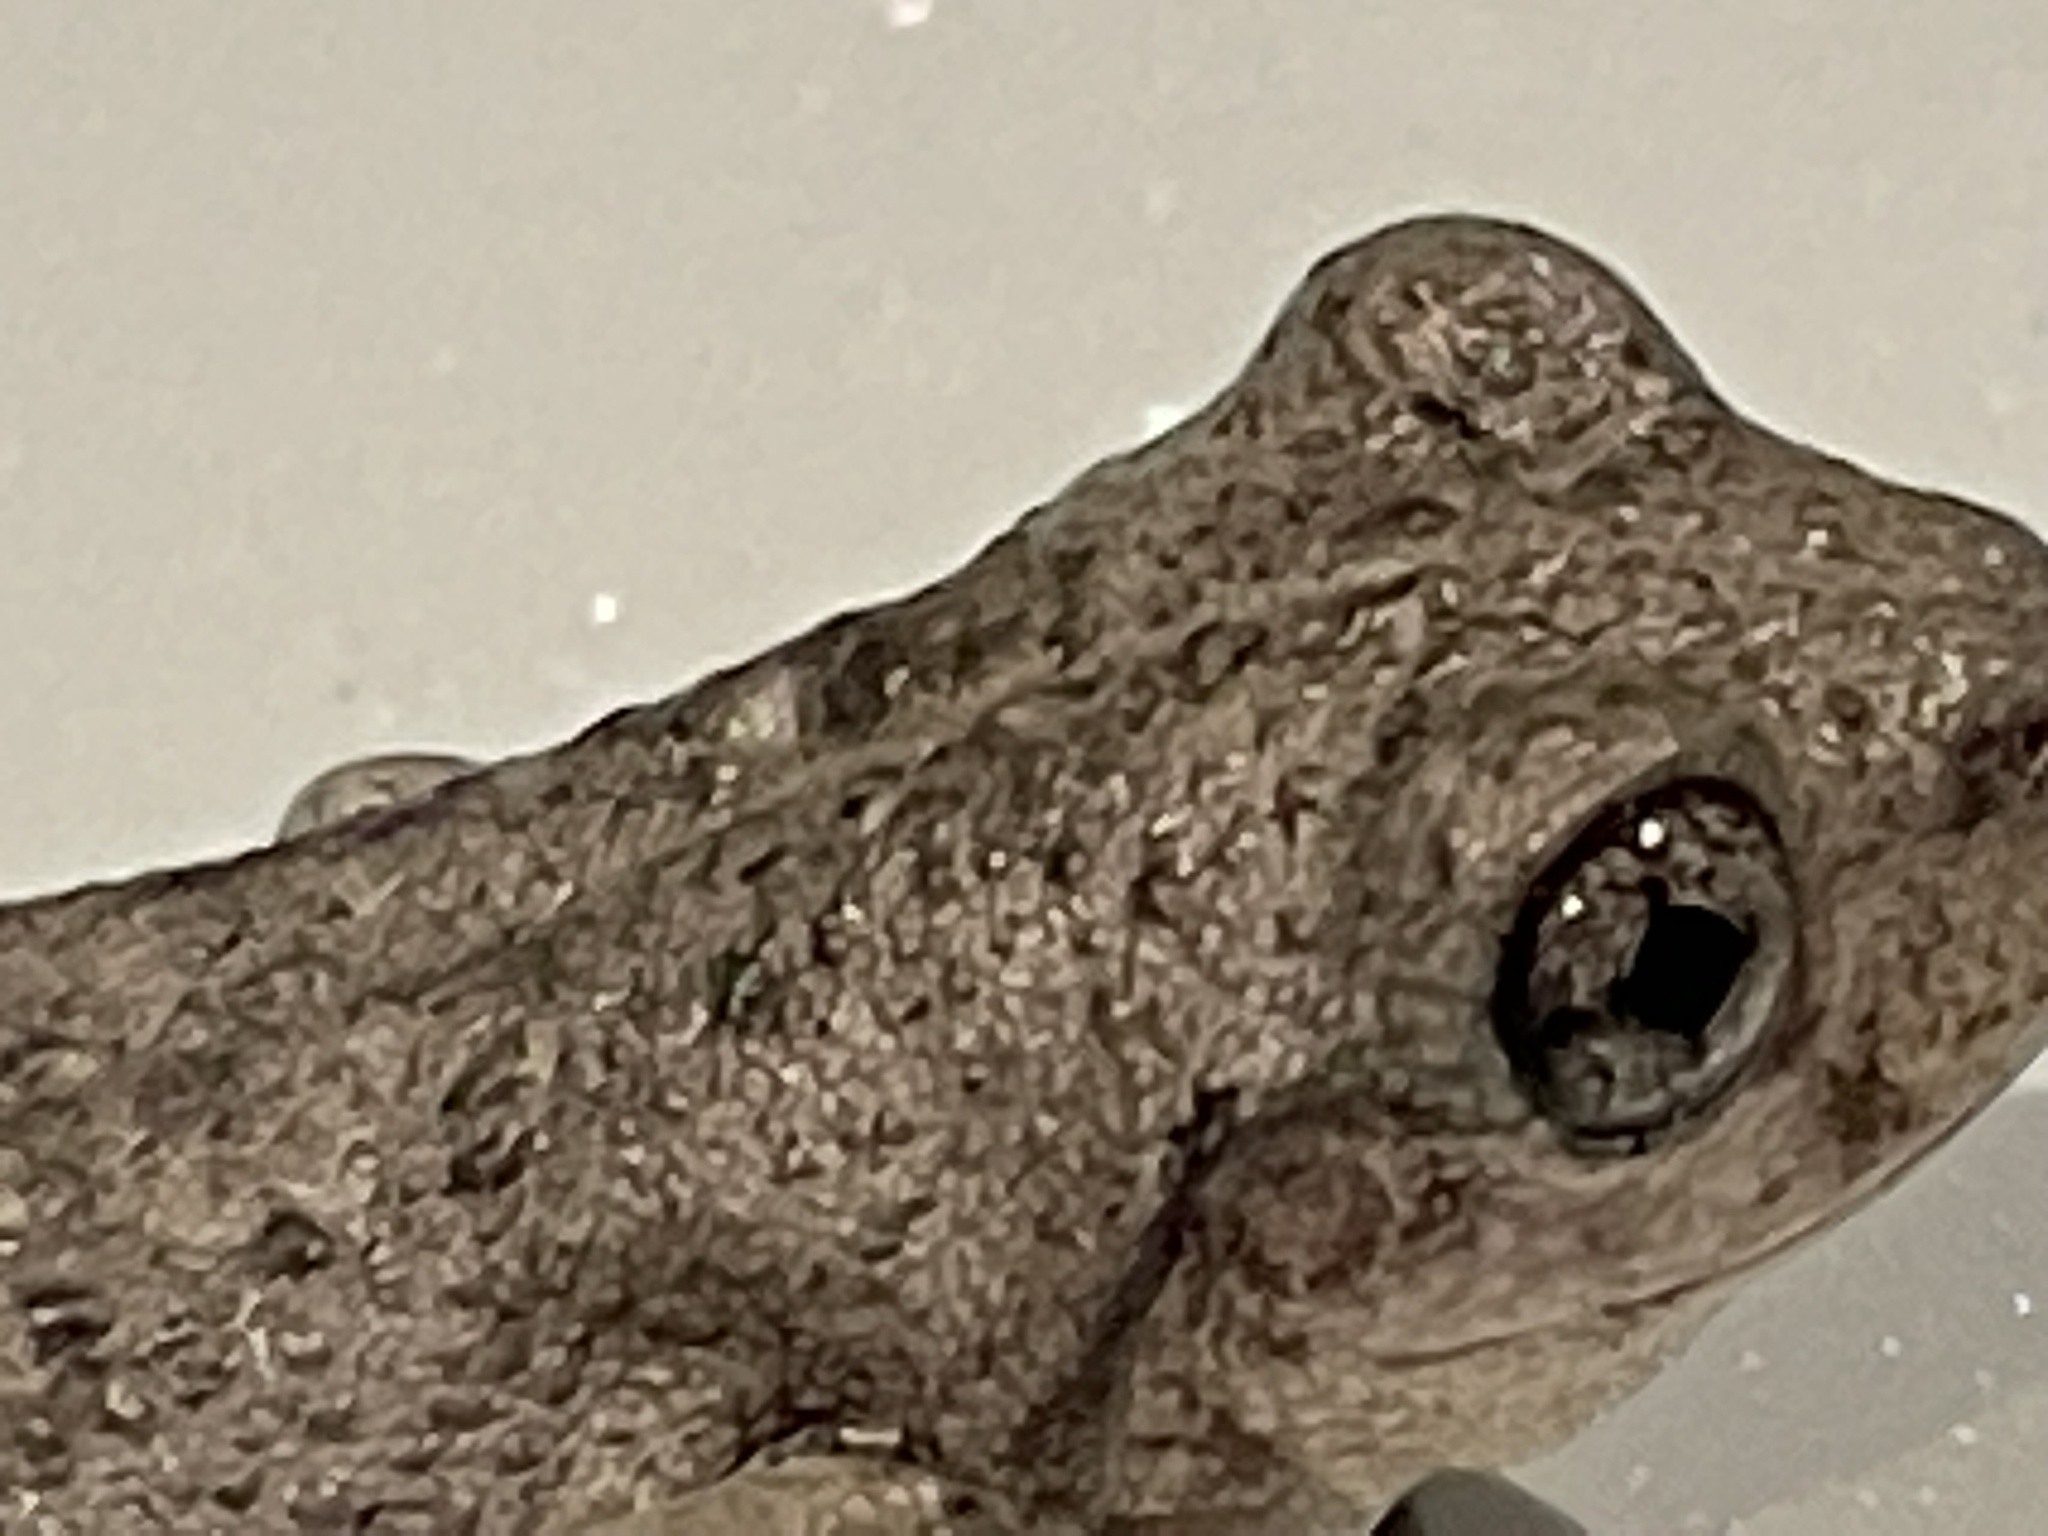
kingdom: Animalia
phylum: Chordata
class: Amphibia
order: Anura
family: Pelodryadidae
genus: Litoria
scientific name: Litoria peronii
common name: Emerald spotted treefrog
